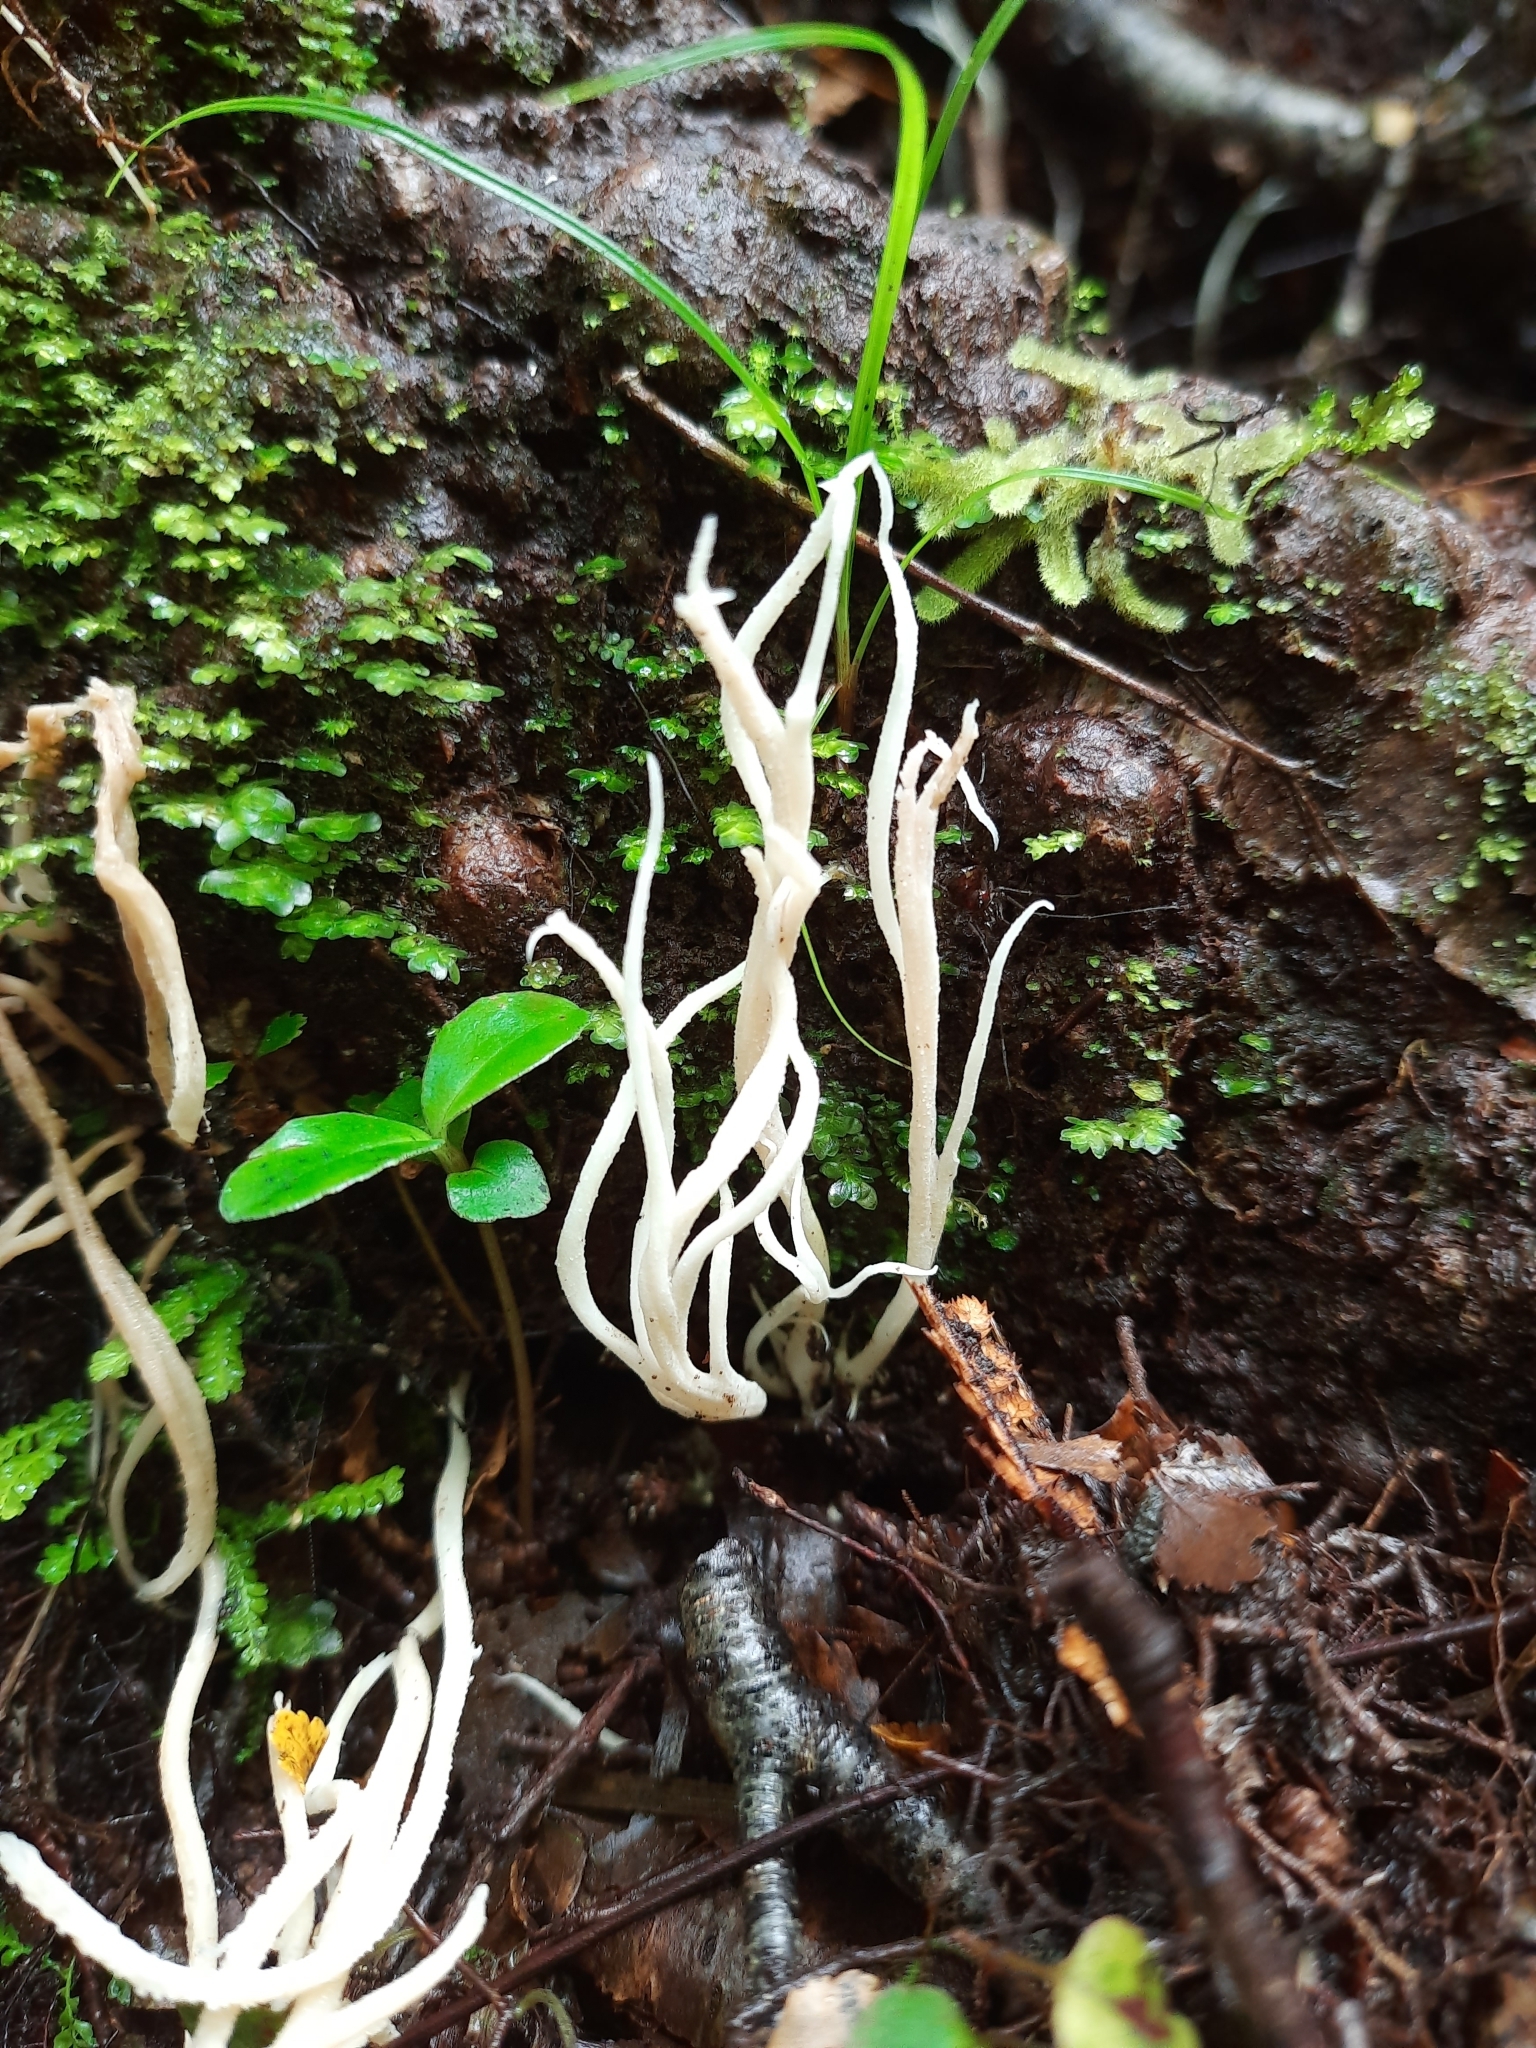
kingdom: Fungi
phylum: Basidiomycota
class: Agaricomycetes
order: Cantharellales
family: Hydnaceae
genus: Clavulina
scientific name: Clavulina
